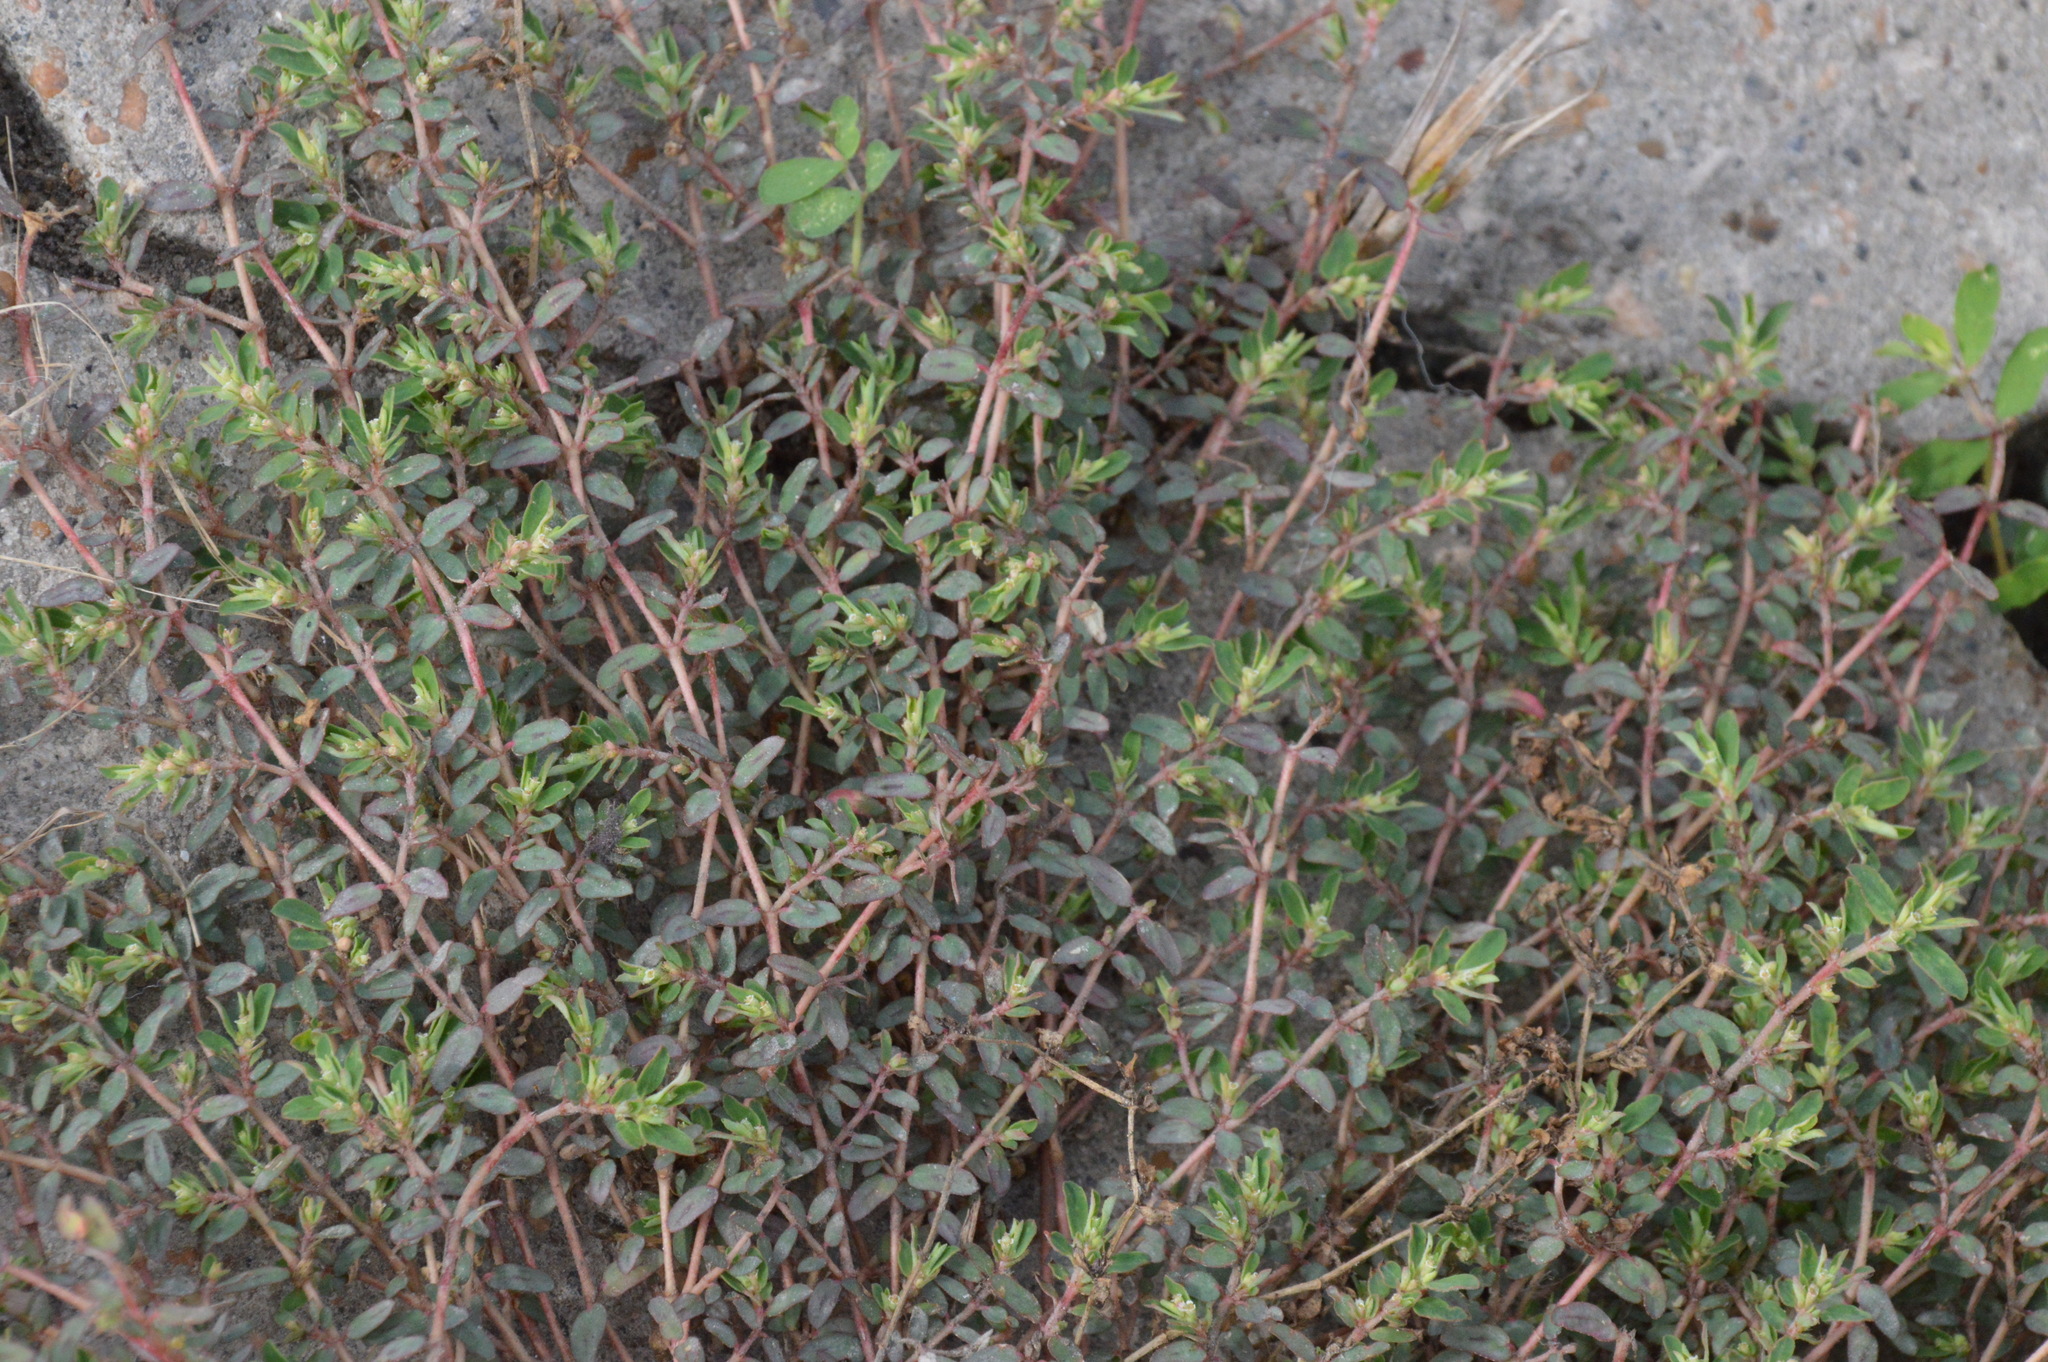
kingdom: Plantae
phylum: Tracheophyta
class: Magnoliopsida
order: Malpighiales
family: Euphorbiaceae
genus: Euphorbia
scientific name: Euphorbia maculata
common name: Spotted spurge
